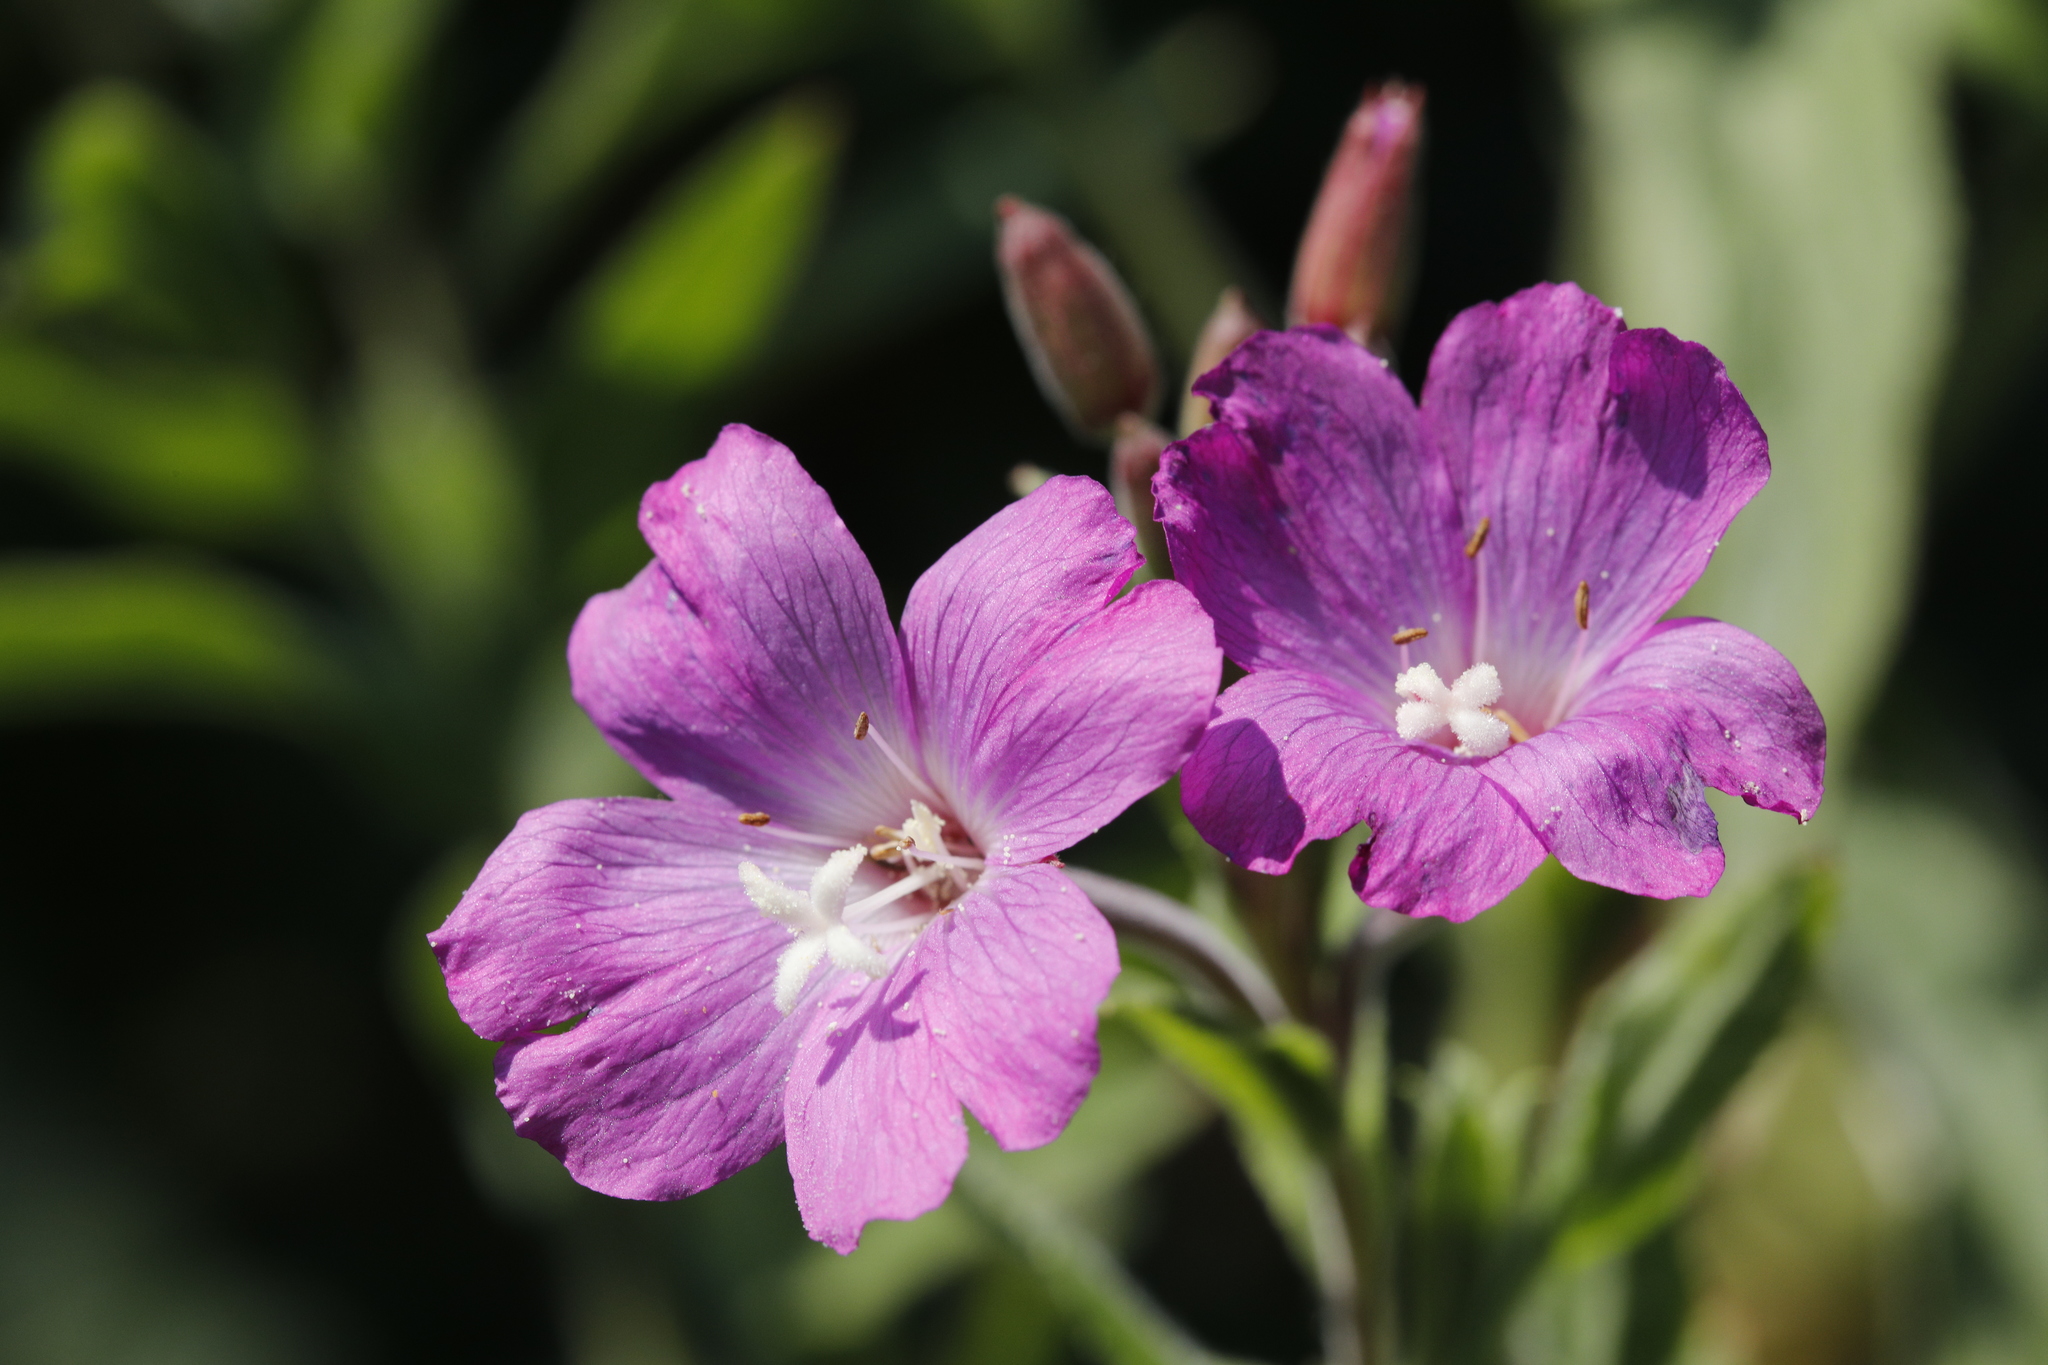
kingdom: Plantae
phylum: Tracheophyta
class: Magnoliopsida
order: Myrtales
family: Onagraceae
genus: Epilobium
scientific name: Epilobium hirsutum
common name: Great willowherb
